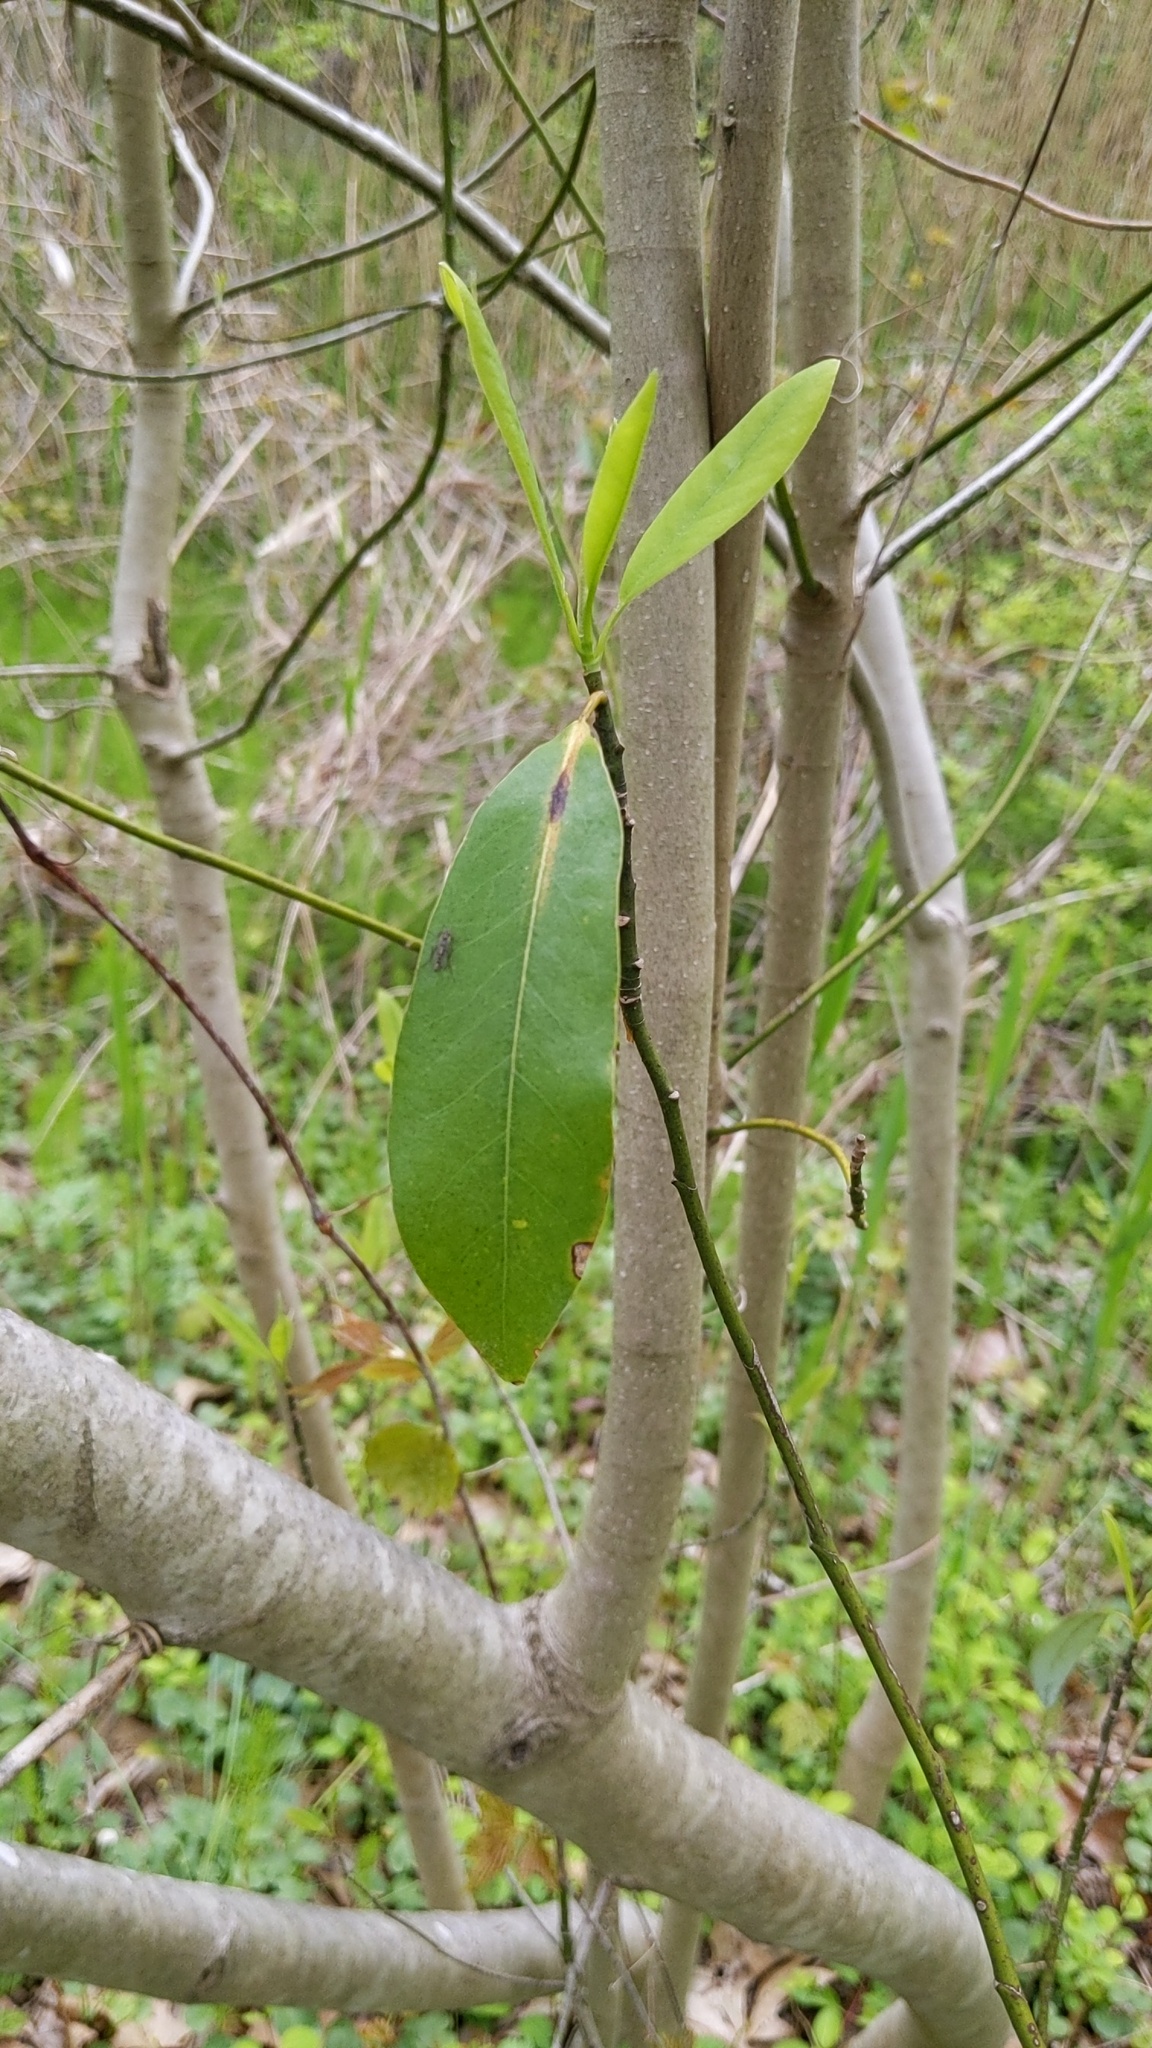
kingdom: Plantae
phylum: Tracheophyta
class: Magnoliopsida
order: Magnoliales
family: Magnoliaceae
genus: Magnolia
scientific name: Magnolia virginiana
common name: Swamp bay
